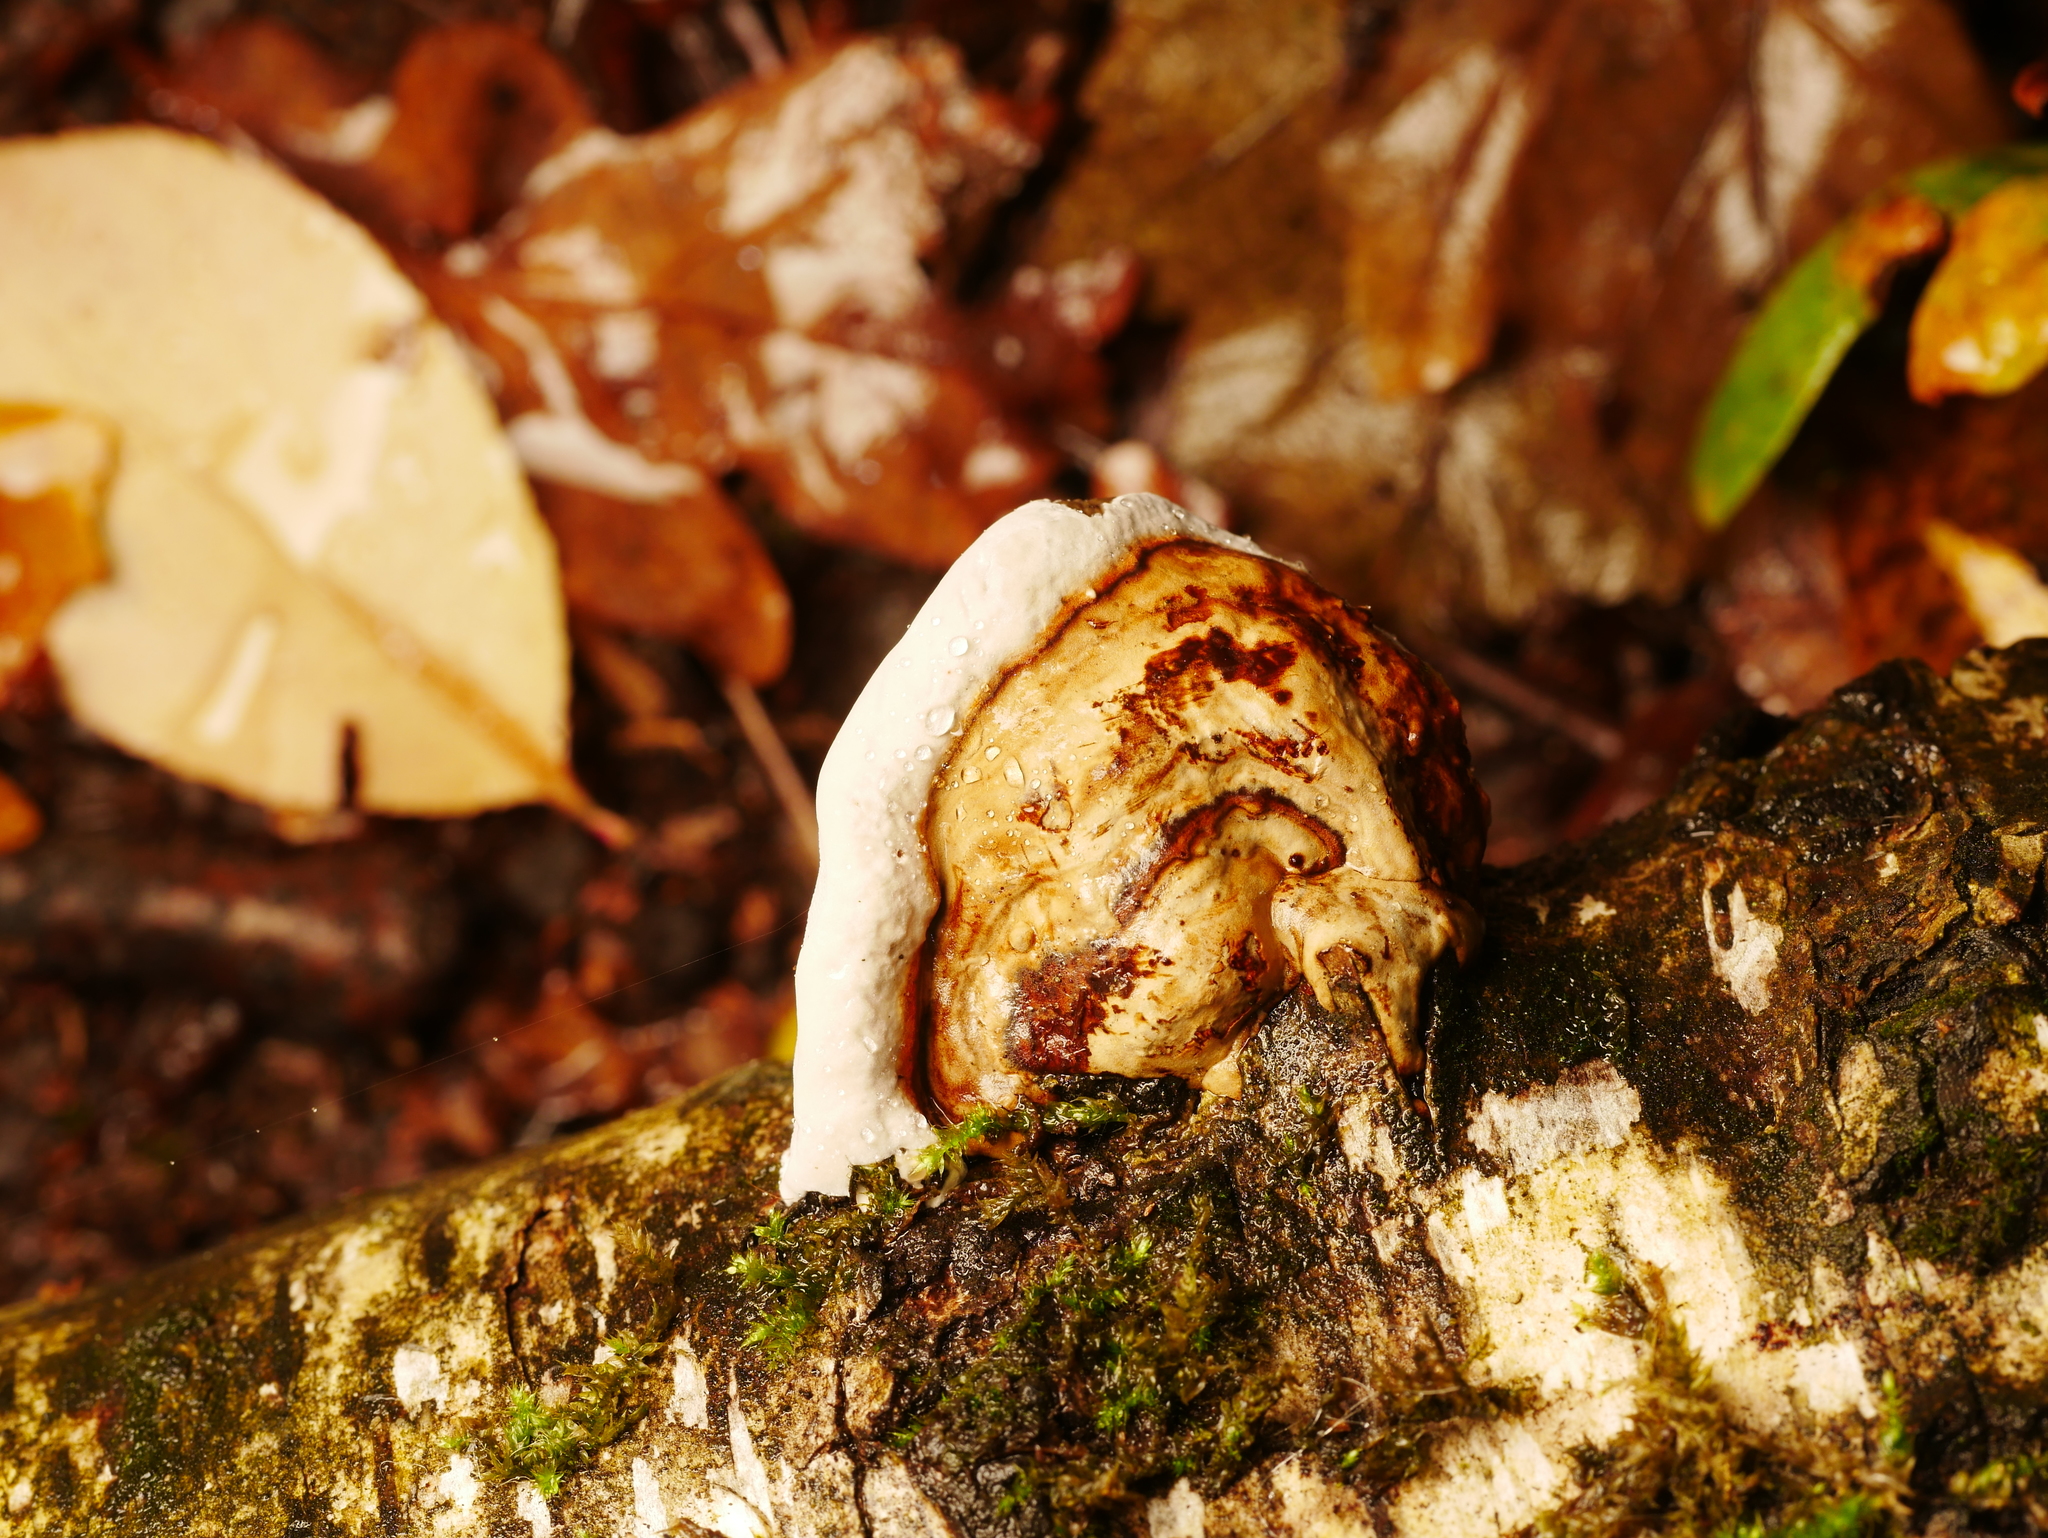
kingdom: Fungi
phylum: Basidiomycota
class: Agaricomycetes
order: Polyporales
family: Polyporaceae
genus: Fomes
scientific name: Fomes fomentarius
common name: Hoof fungus
